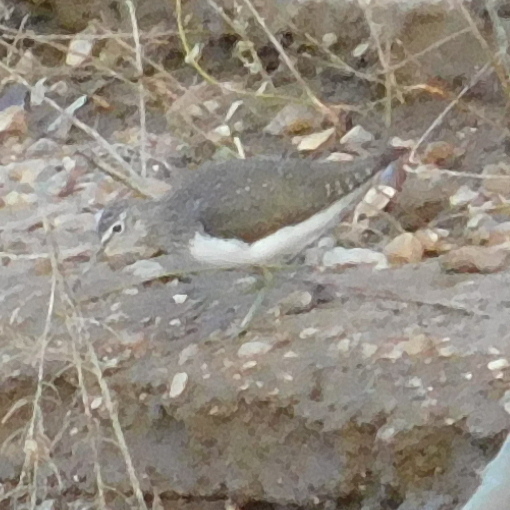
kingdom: Animalia
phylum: Chordata
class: Aves
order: Charadriiformes
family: Scolopacidae
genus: Tringa
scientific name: Tringa ochropus
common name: Green sandpiper
